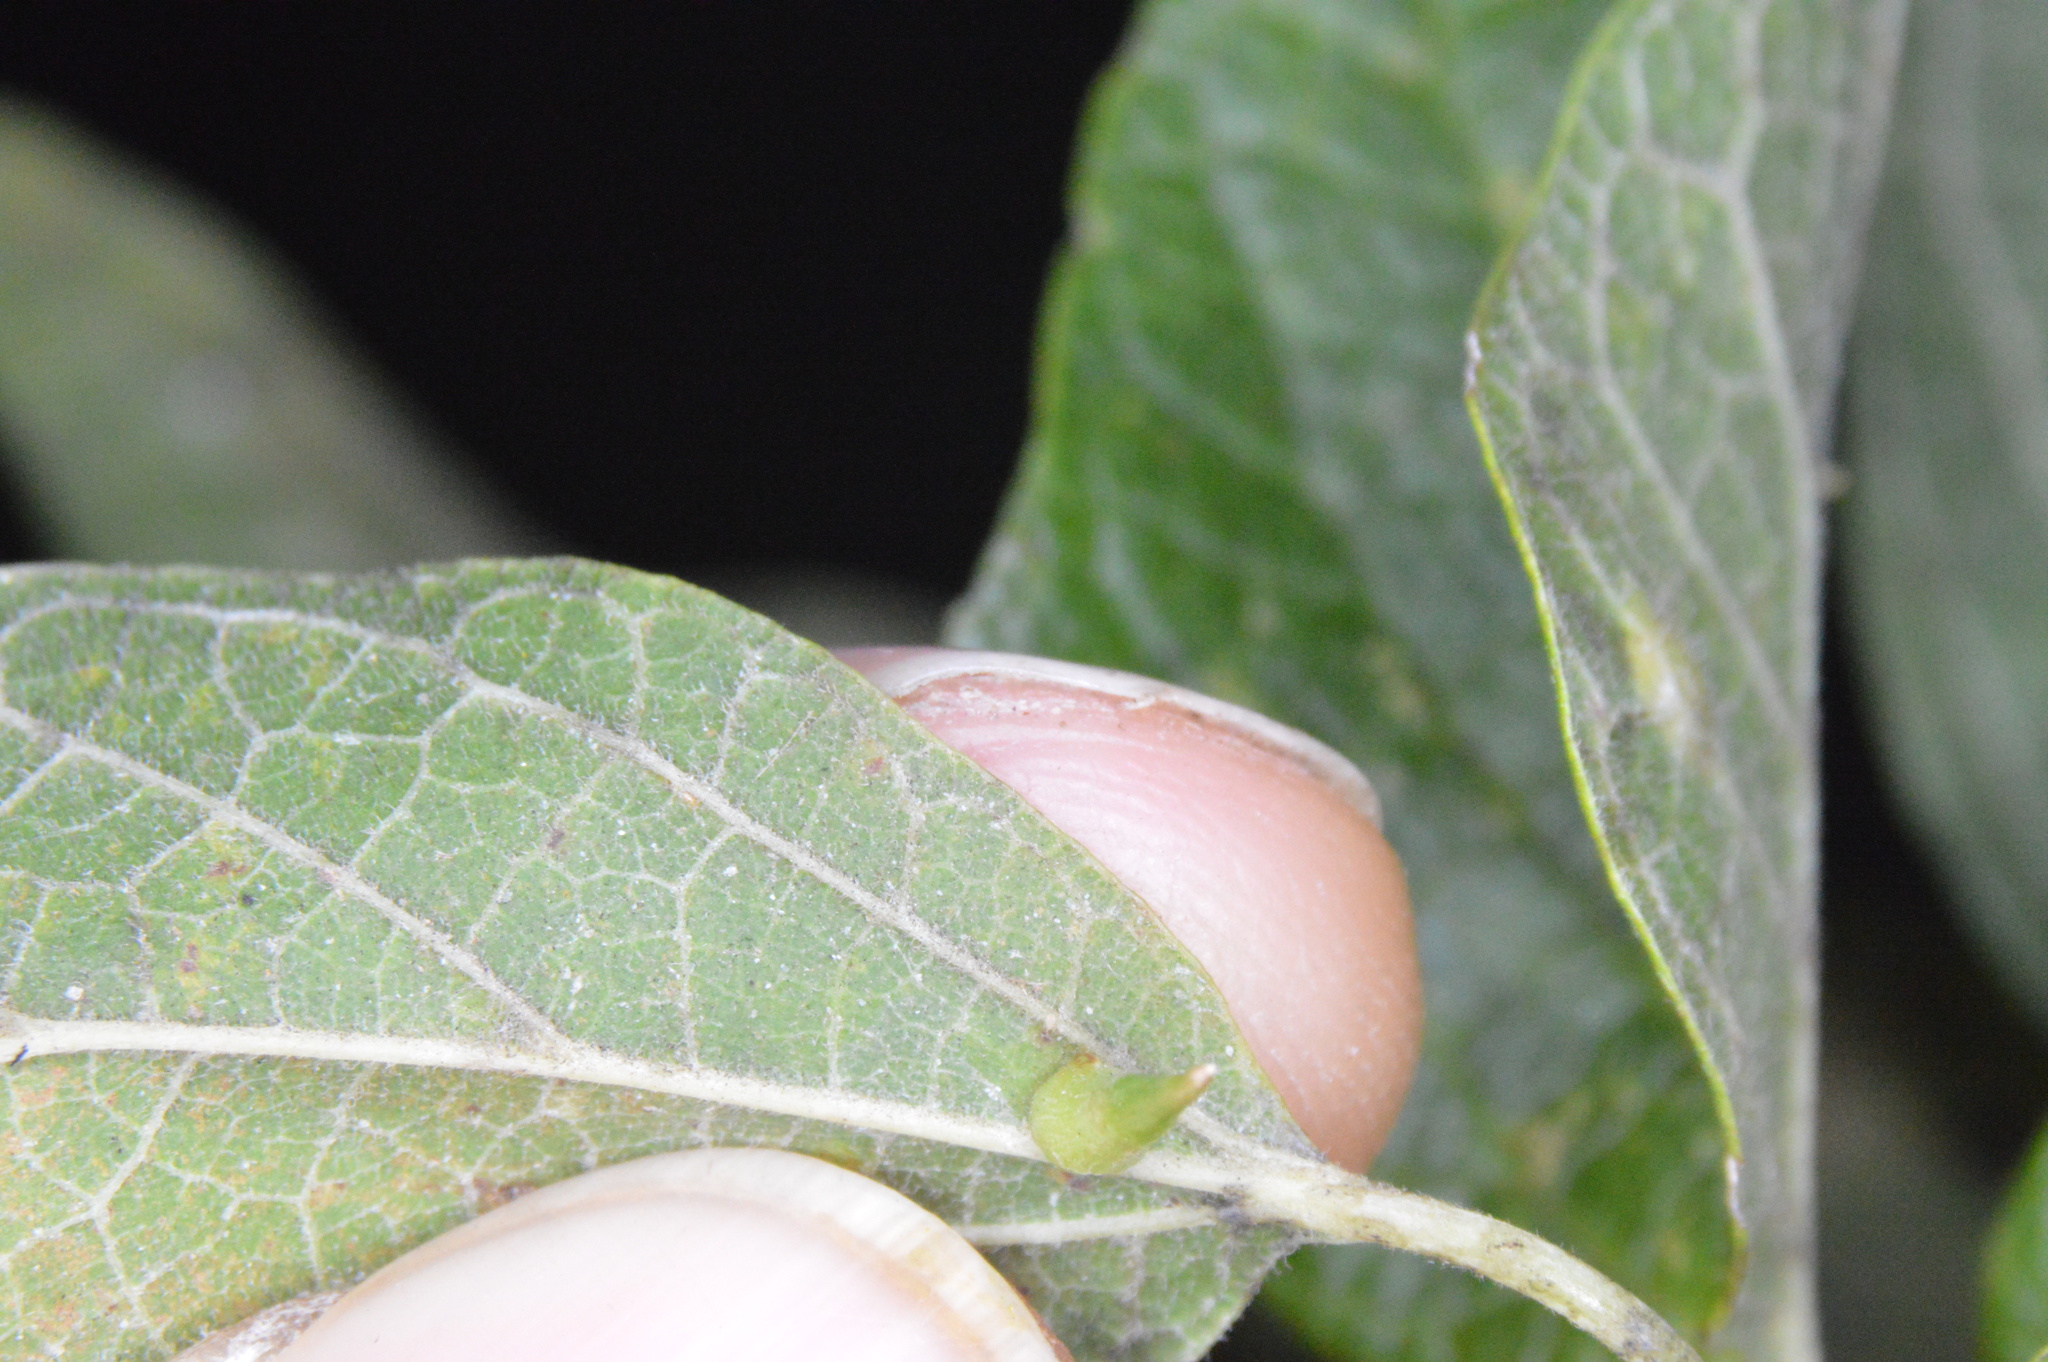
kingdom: Animalia
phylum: Arthropoda
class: Insecta
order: Diptera
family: Cecidomyiidae
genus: Celticecis
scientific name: Celticecis subulata
